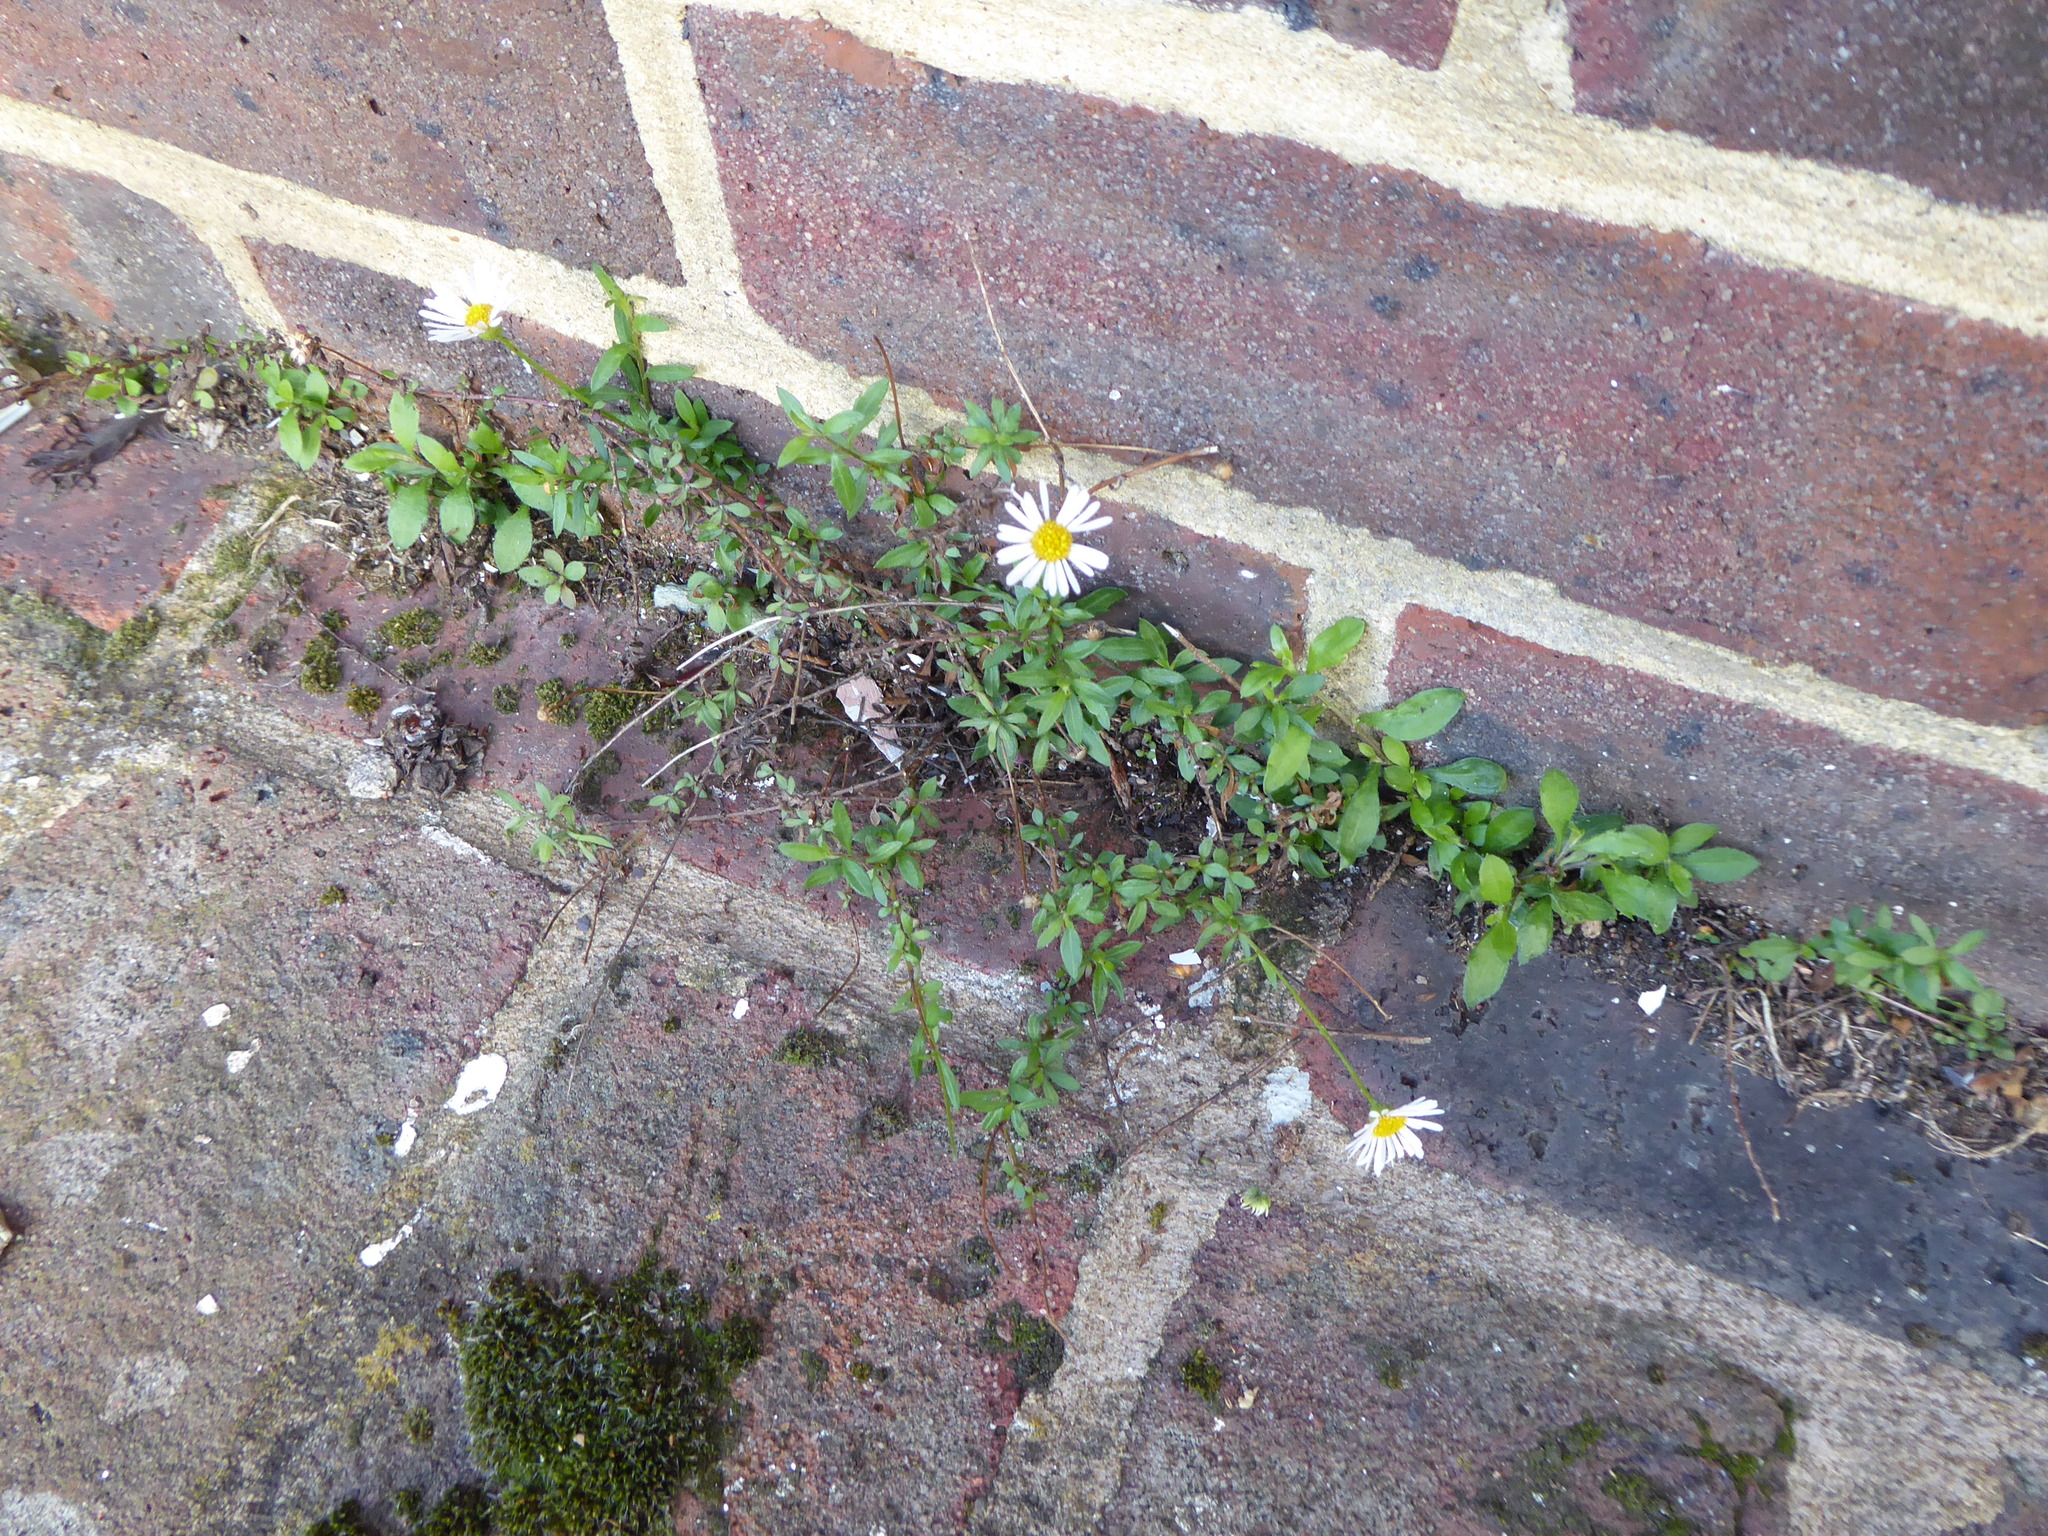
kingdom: Plantae
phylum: Tracheophyta
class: Magnoliopsida
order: Asterales
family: Asteraceae
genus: Erigeron
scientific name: Erigeron karvinskianus
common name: Mexican fleabane
